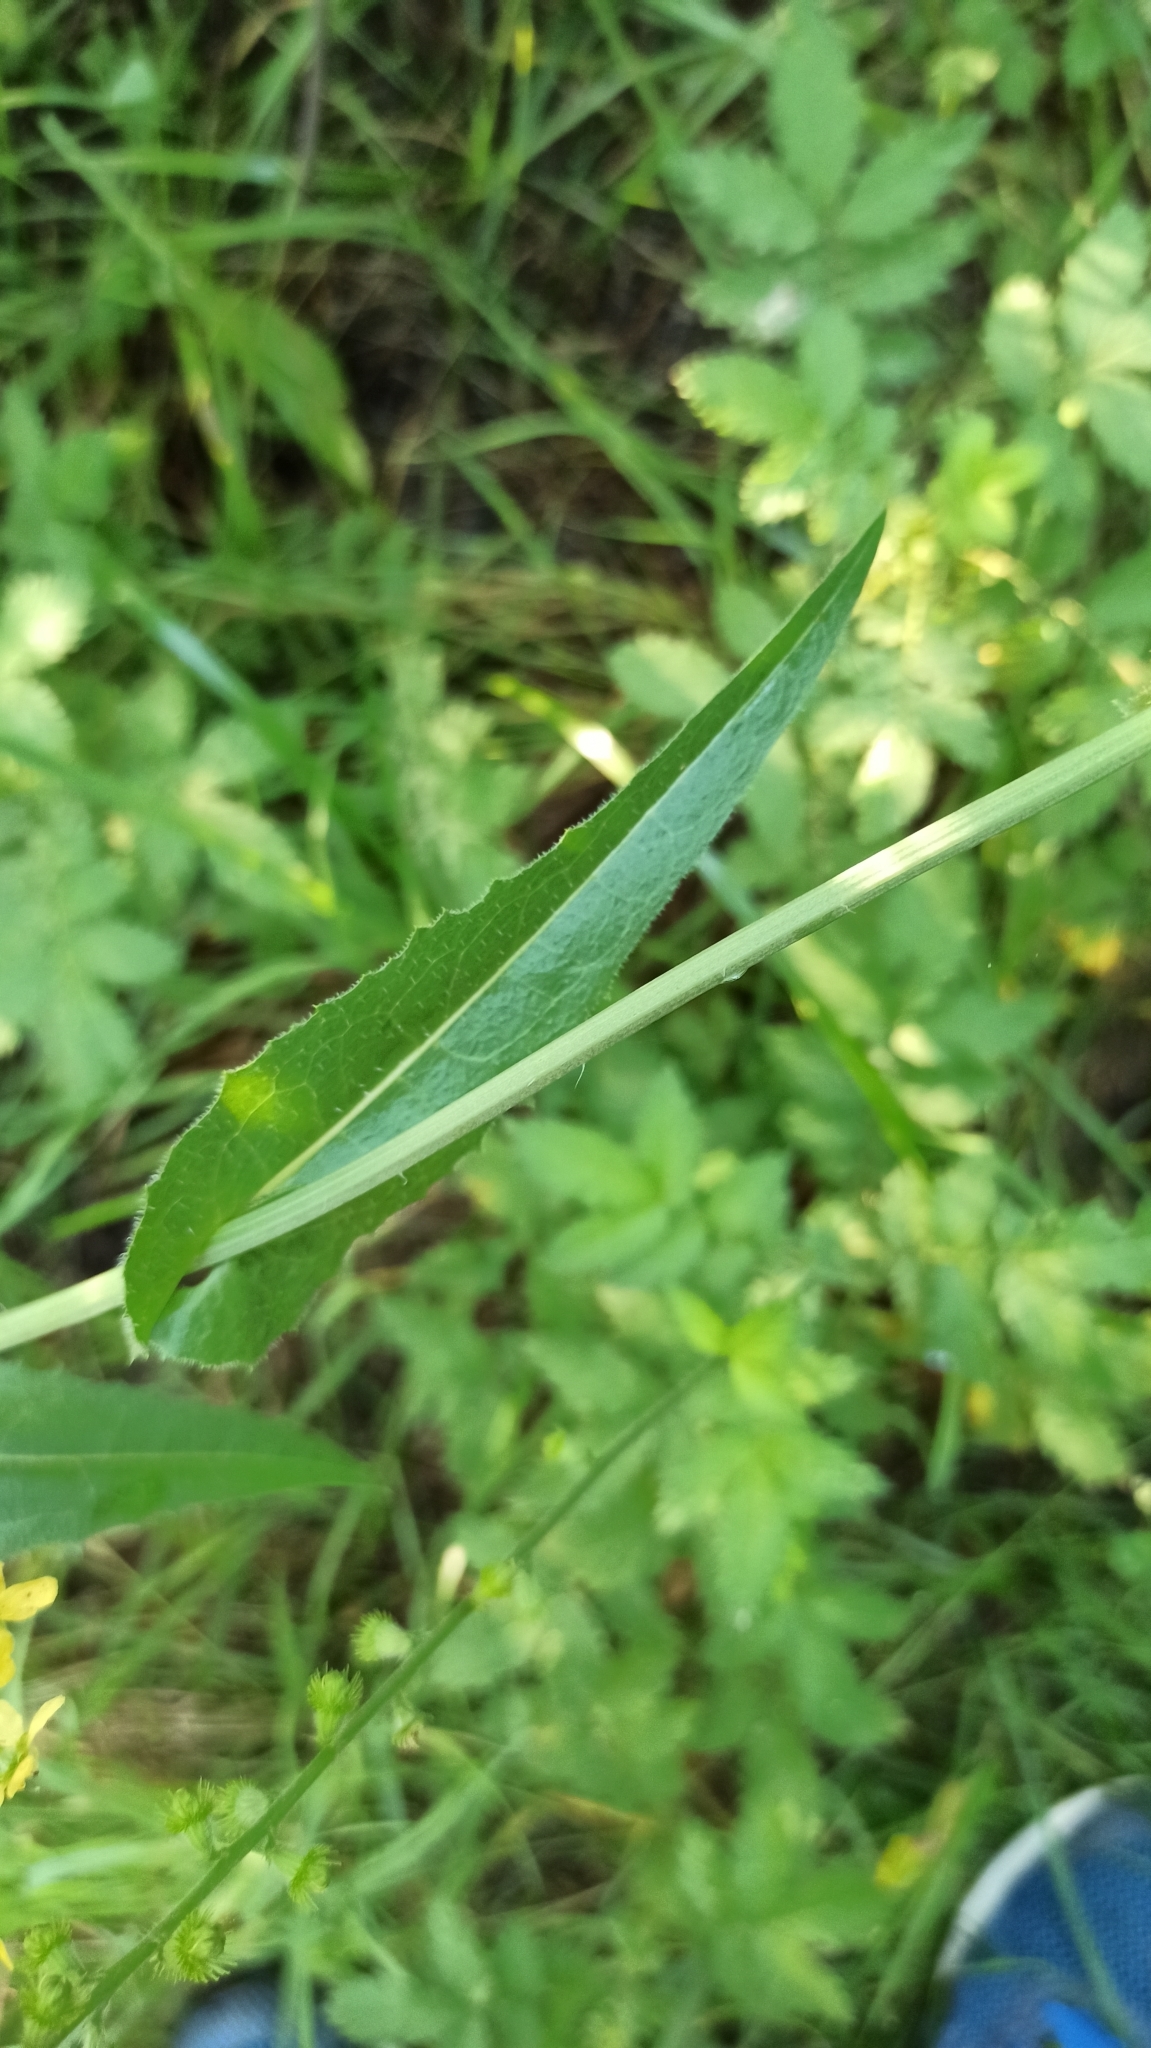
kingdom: Plantae
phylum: Tracheophyta
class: Magnoliopsida
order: Asterales
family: Asteraceae
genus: Cichorium
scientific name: Cichorium intybus
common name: Chicory
